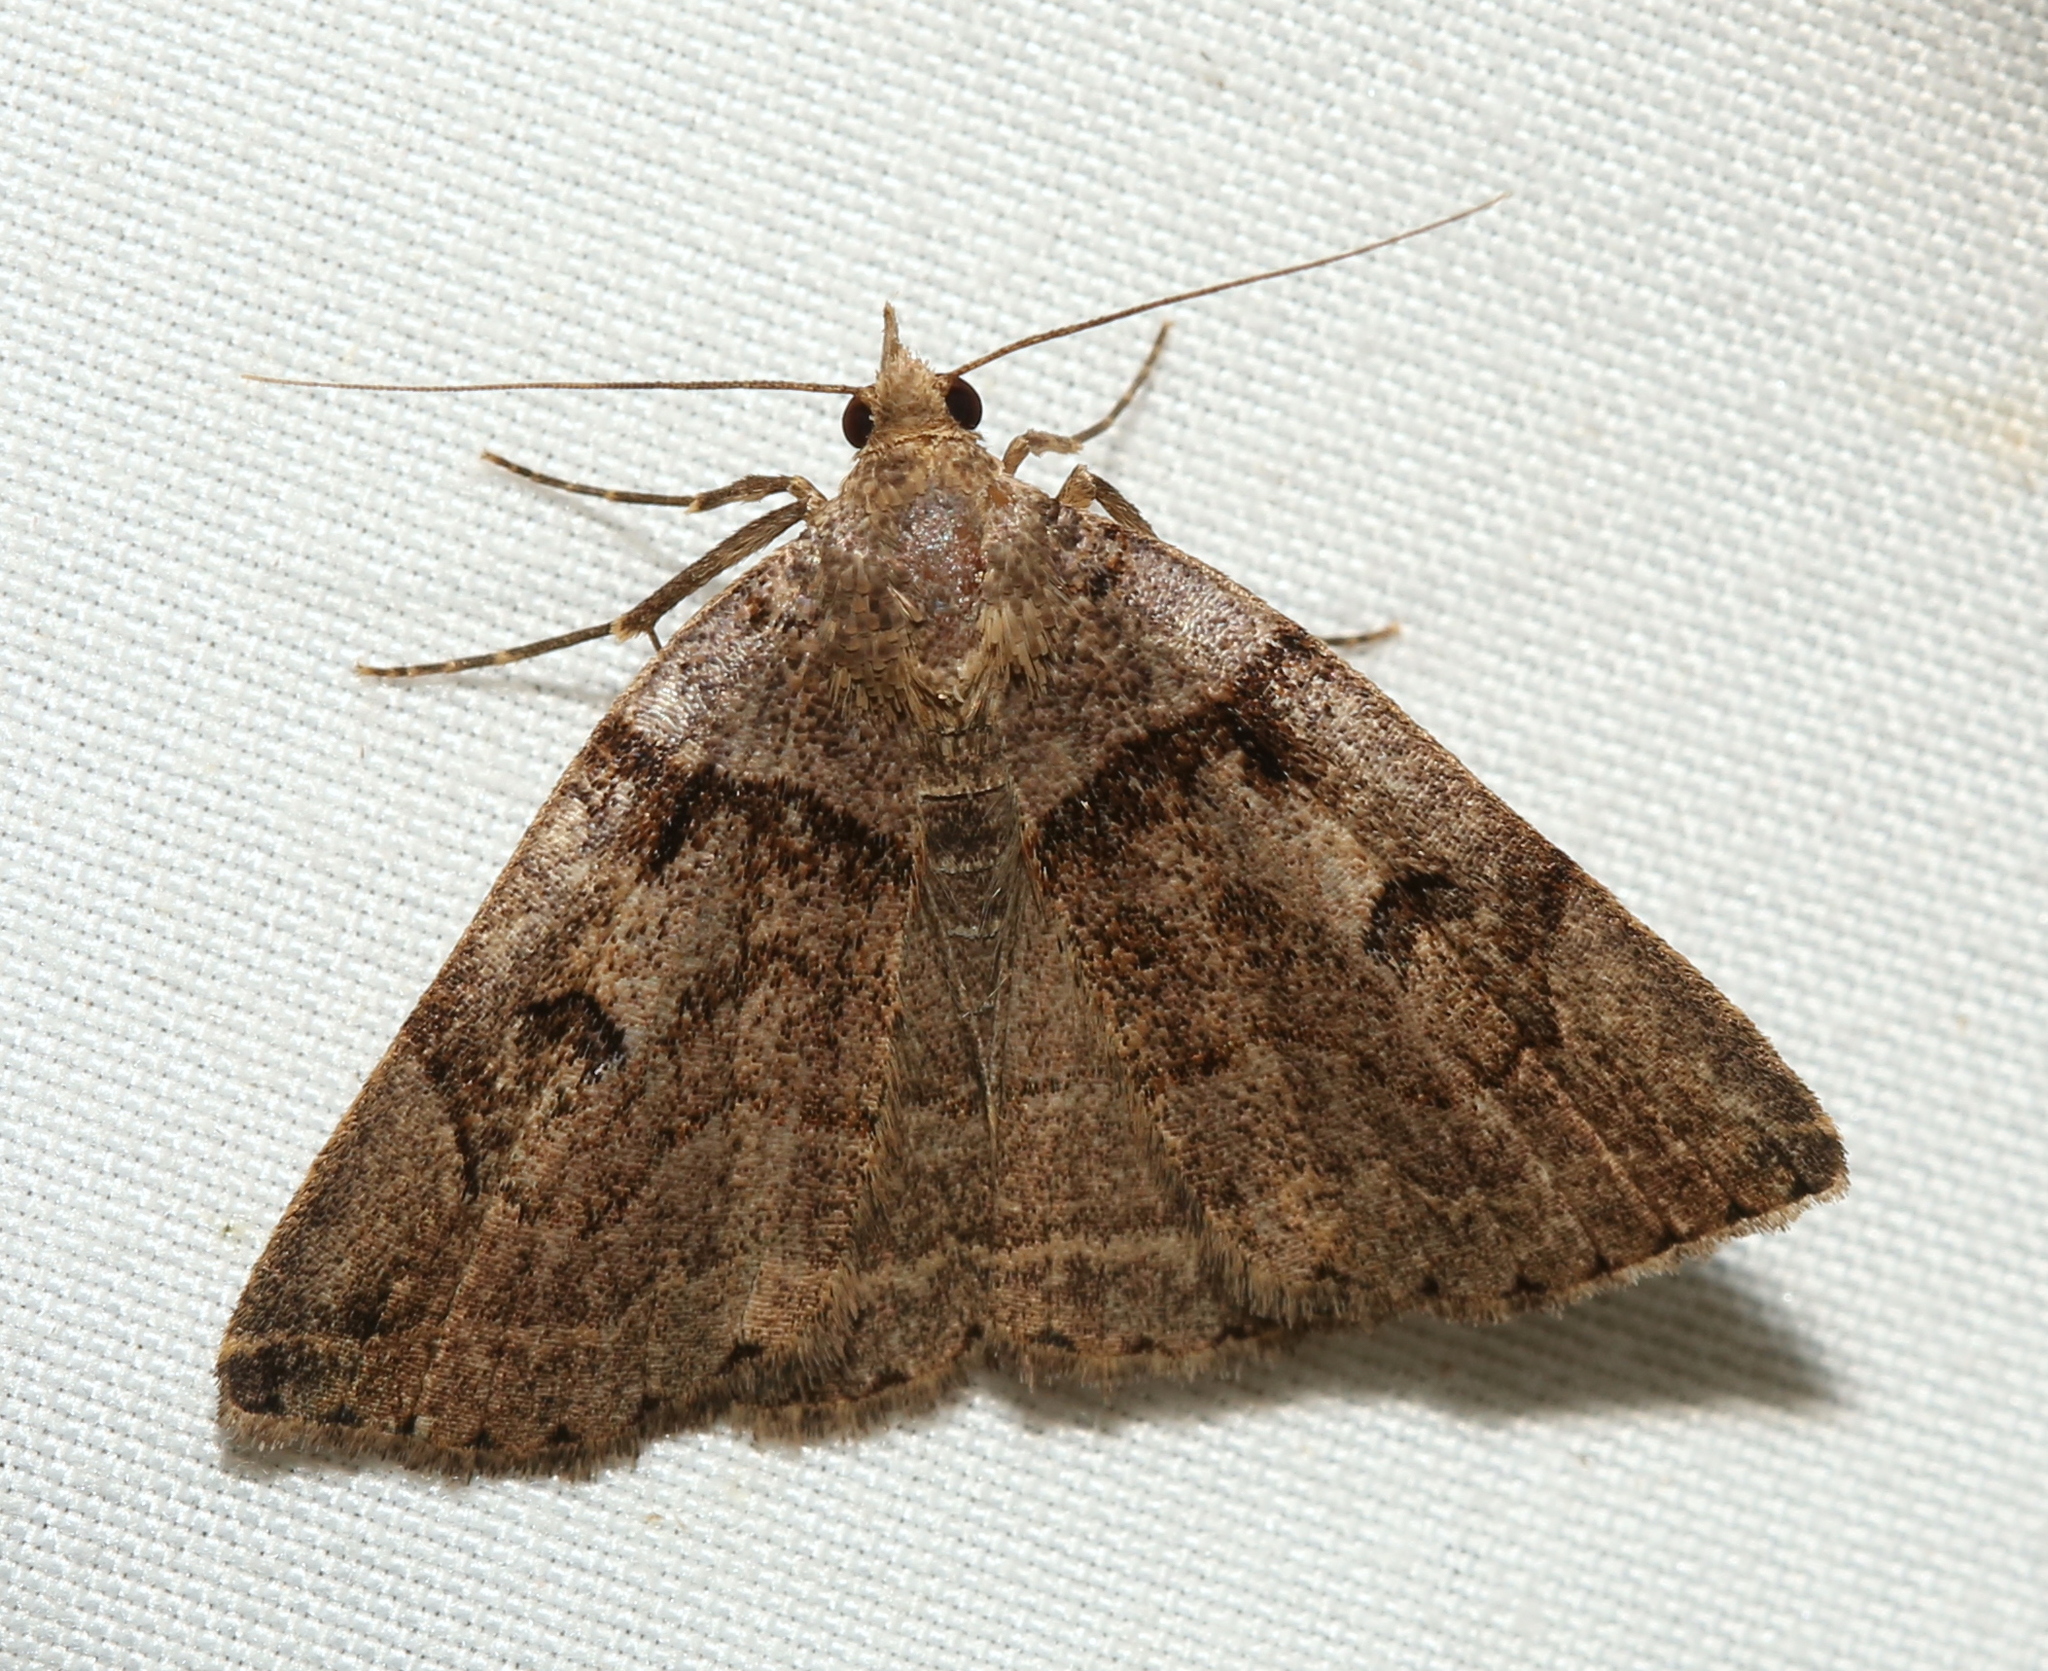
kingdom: Animalia
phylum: Arthropoda
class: Insecta
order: Lepidoptera
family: Erebidae
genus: Zanclognatha
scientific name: Zanclognatha laevigata
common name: Variable fan-foot
